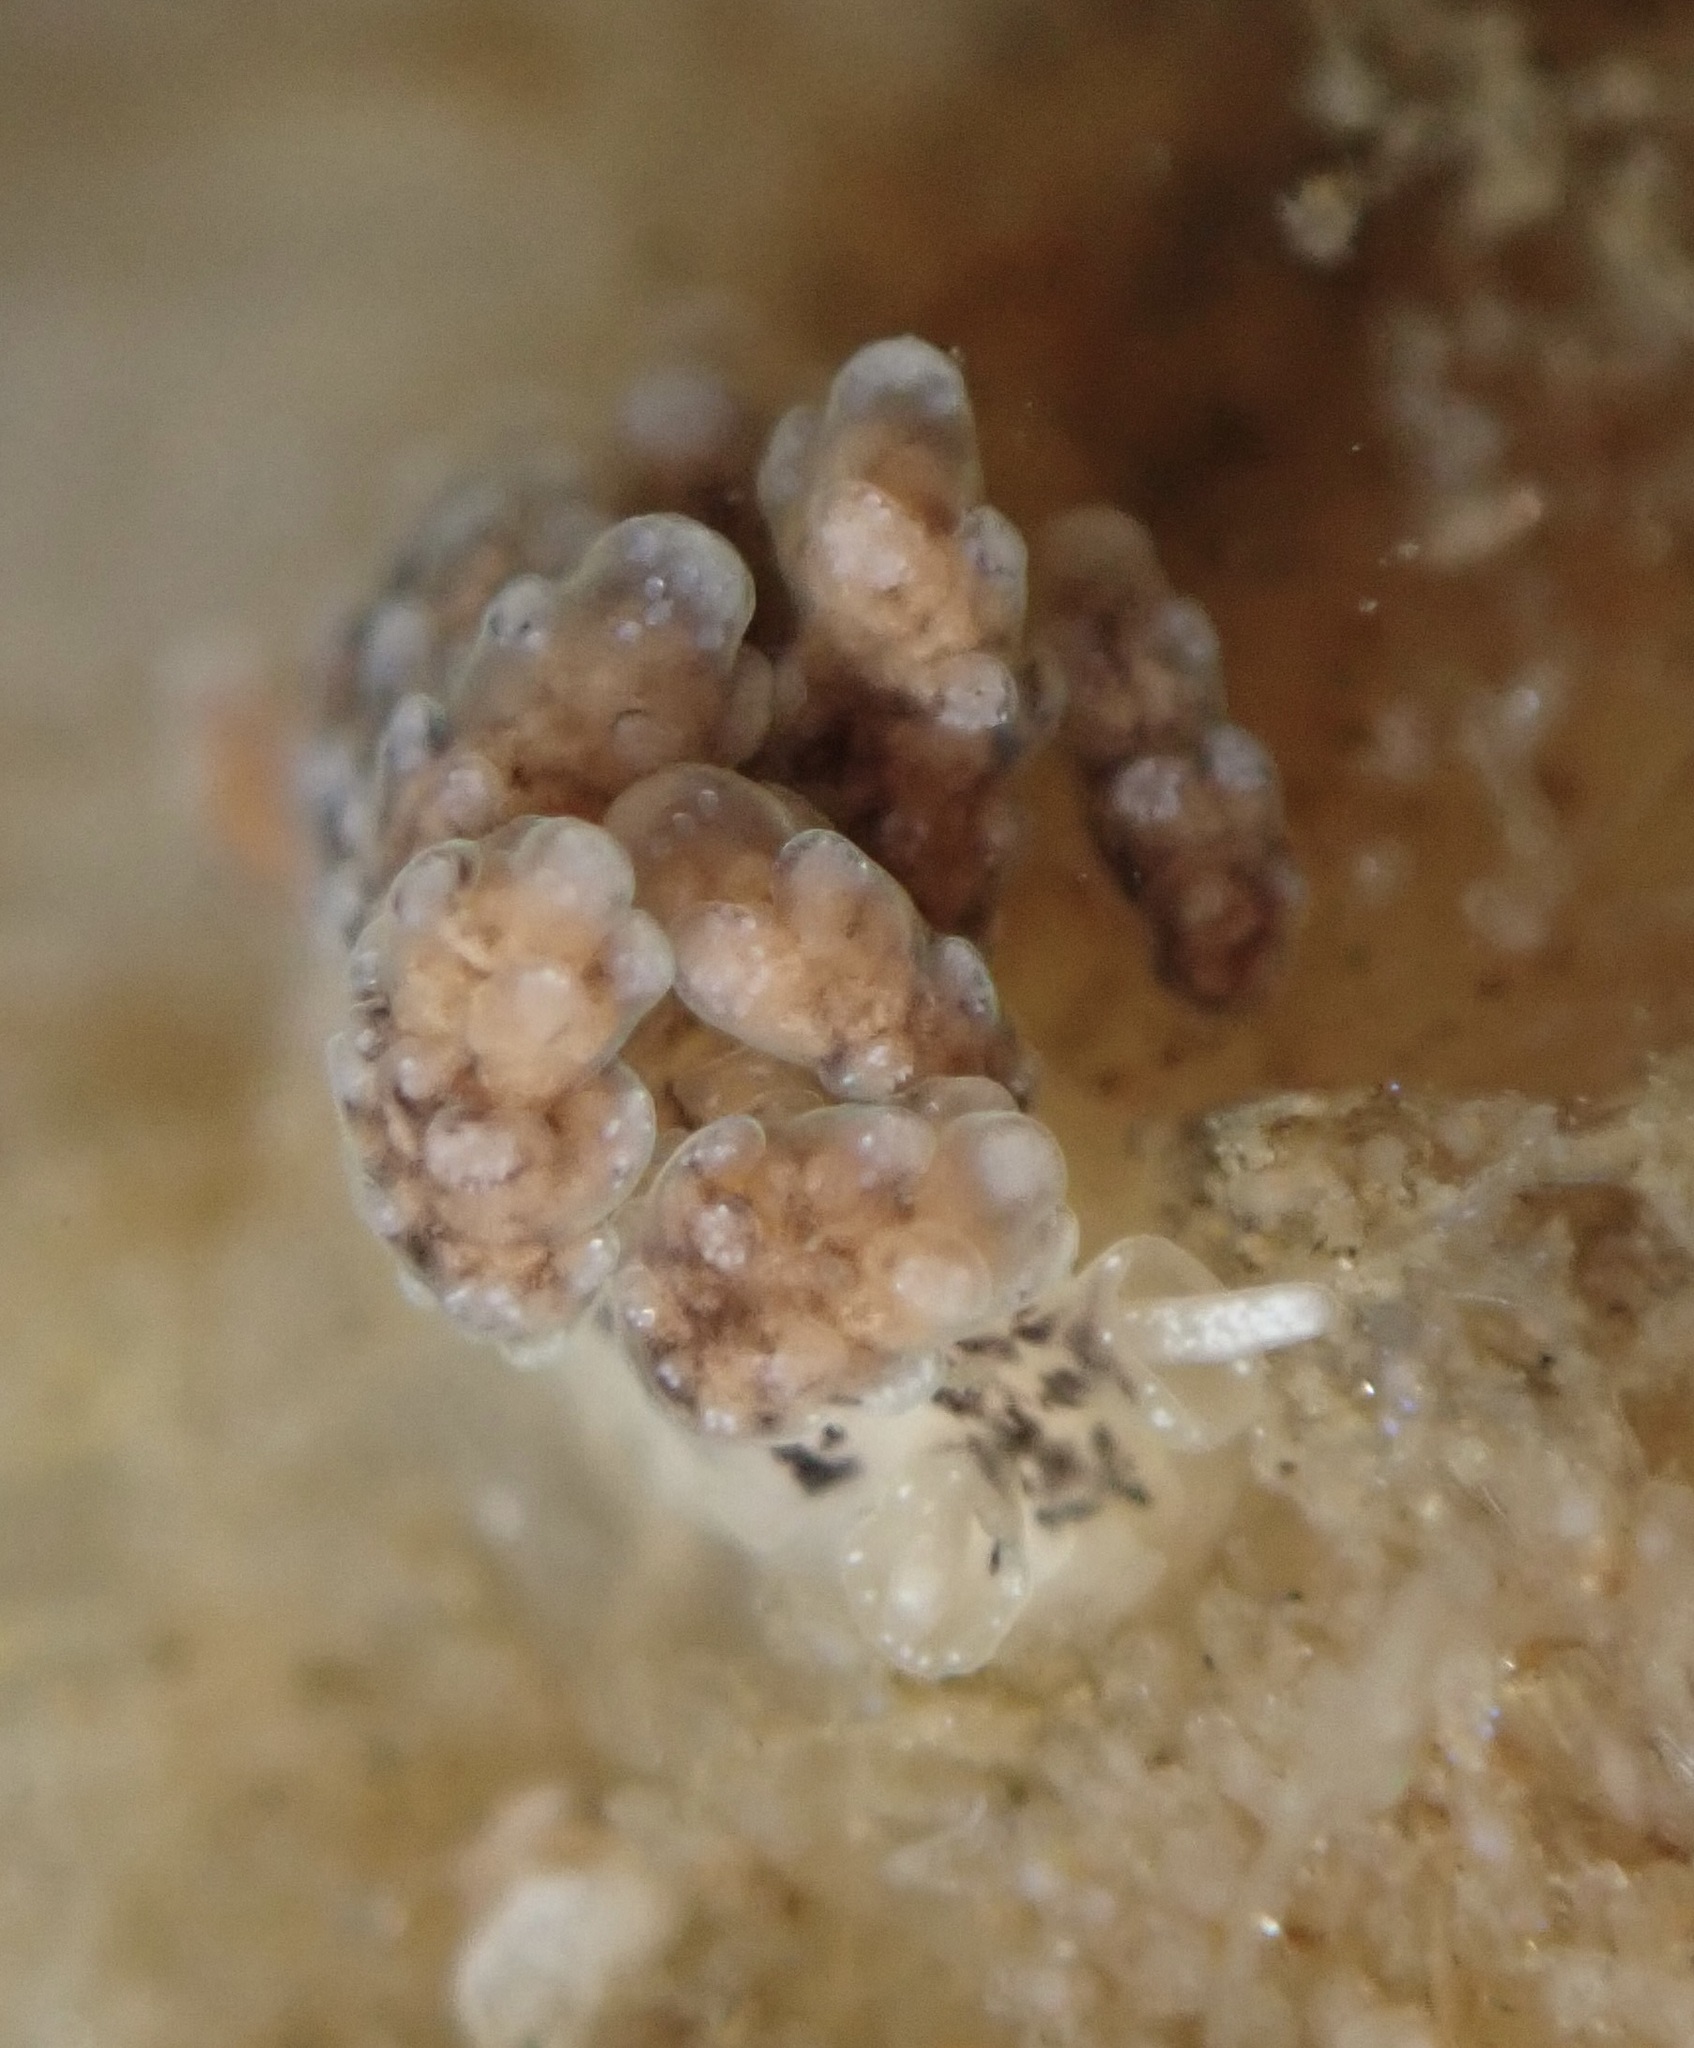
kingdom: Animalia
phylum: Mollusca
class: Gastropoda
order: Nudibranchia
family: Dotidae
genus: Doto
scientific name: Doto kya
